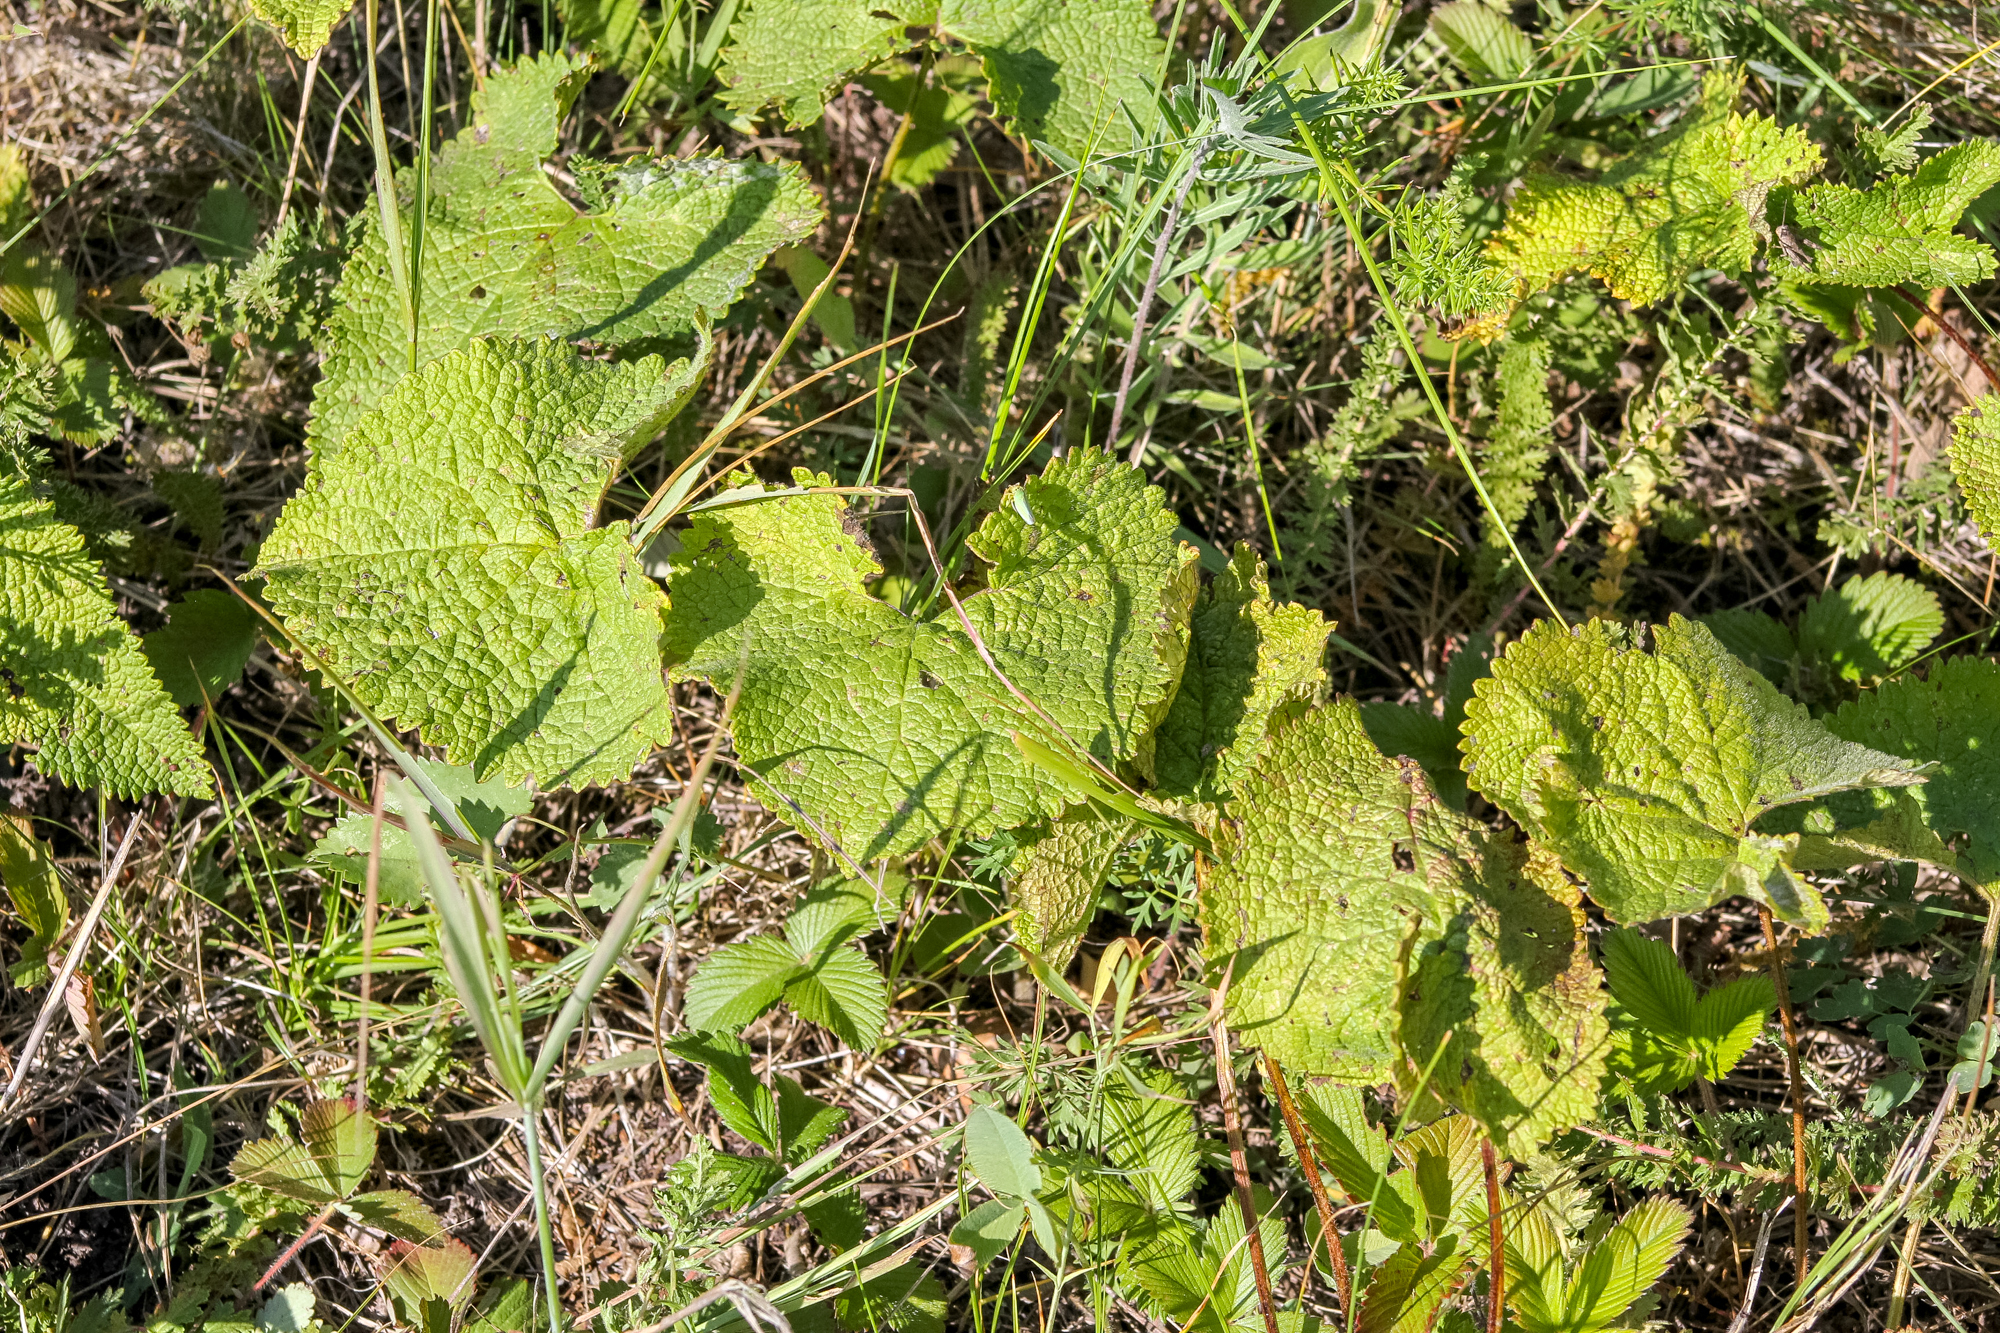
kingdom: Plantae
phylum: Tracheophyta
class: Magnoliopsida
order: Lamiales
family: Lamiaceae
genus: Phlomoides
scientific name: Phlomoides tuberosa
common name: Tuberous jerusalem sage
